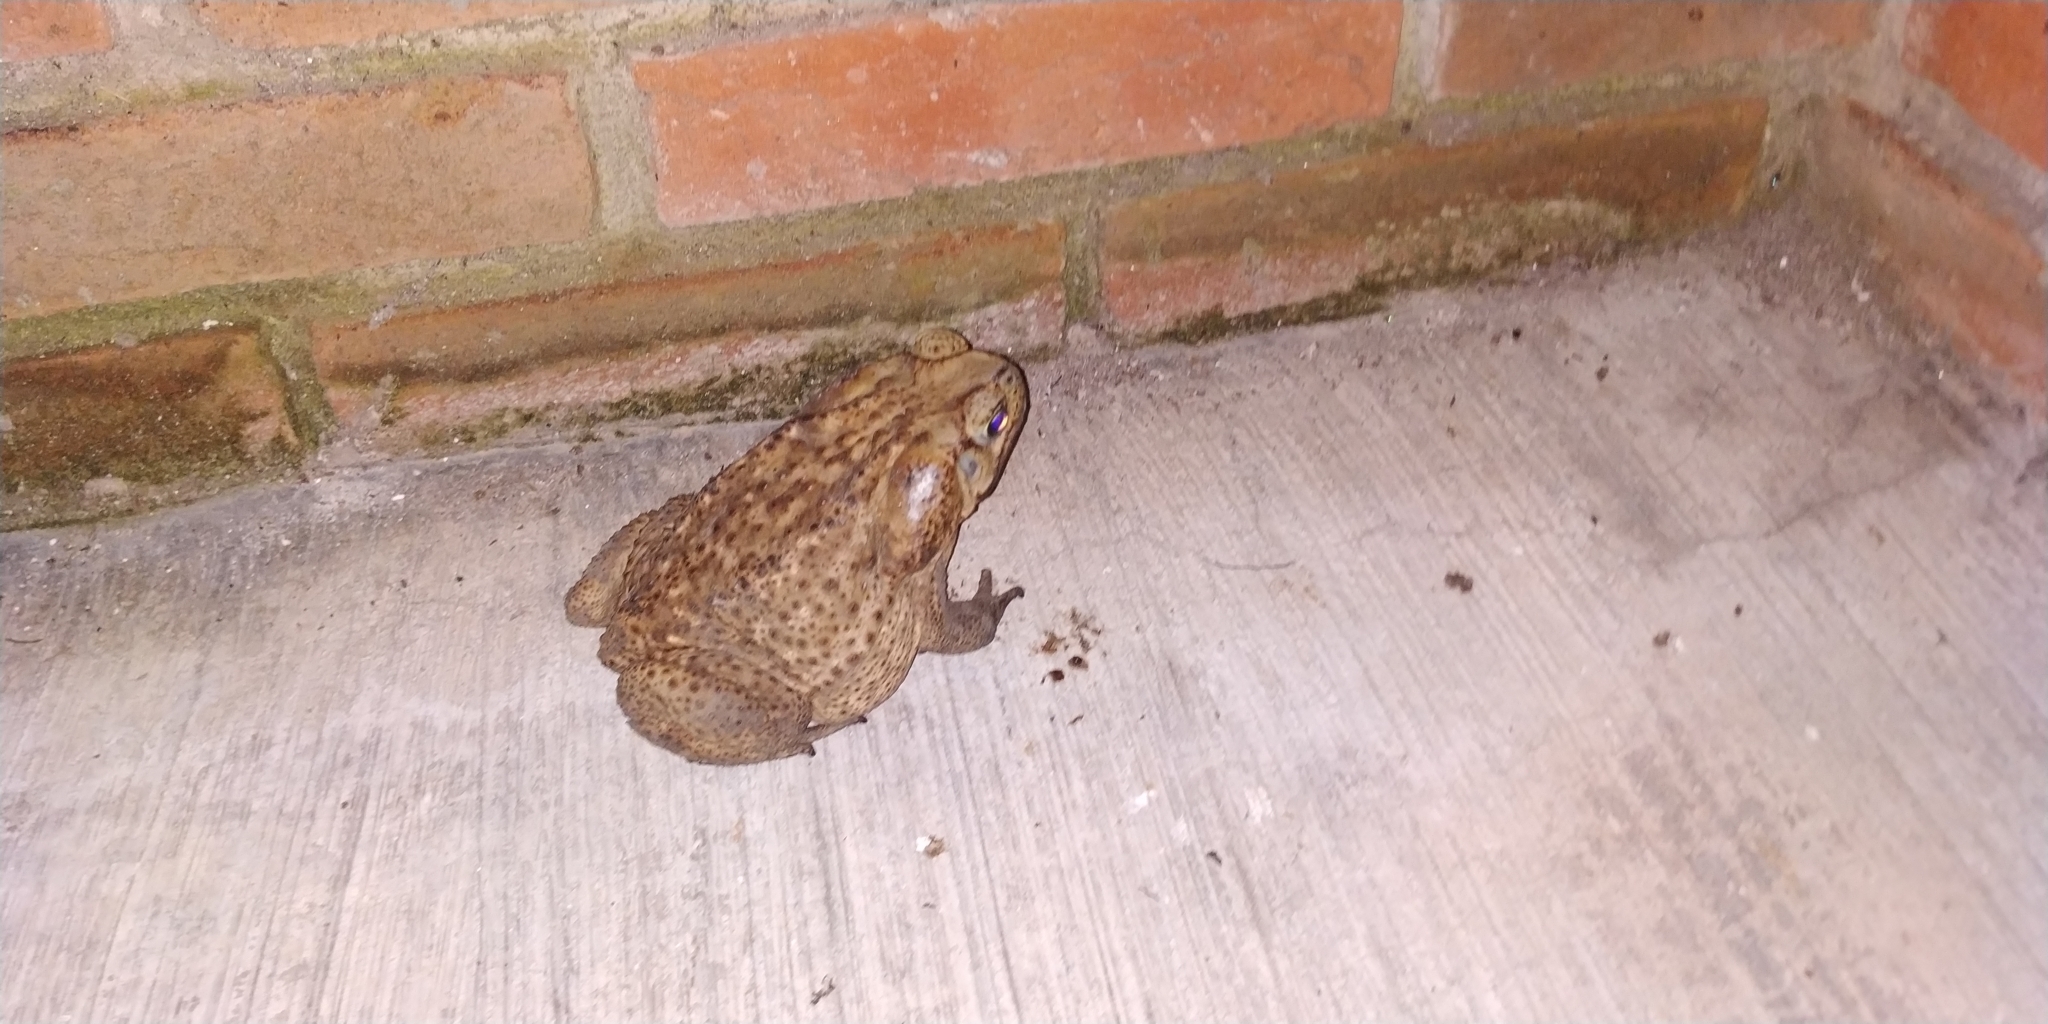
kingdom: Animalia
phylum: Chordata
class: Amphibia
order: Anura
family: Bufonidae
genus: Rhinella
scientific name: Rhinella horribilis
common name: Mesoamerican cane toad
